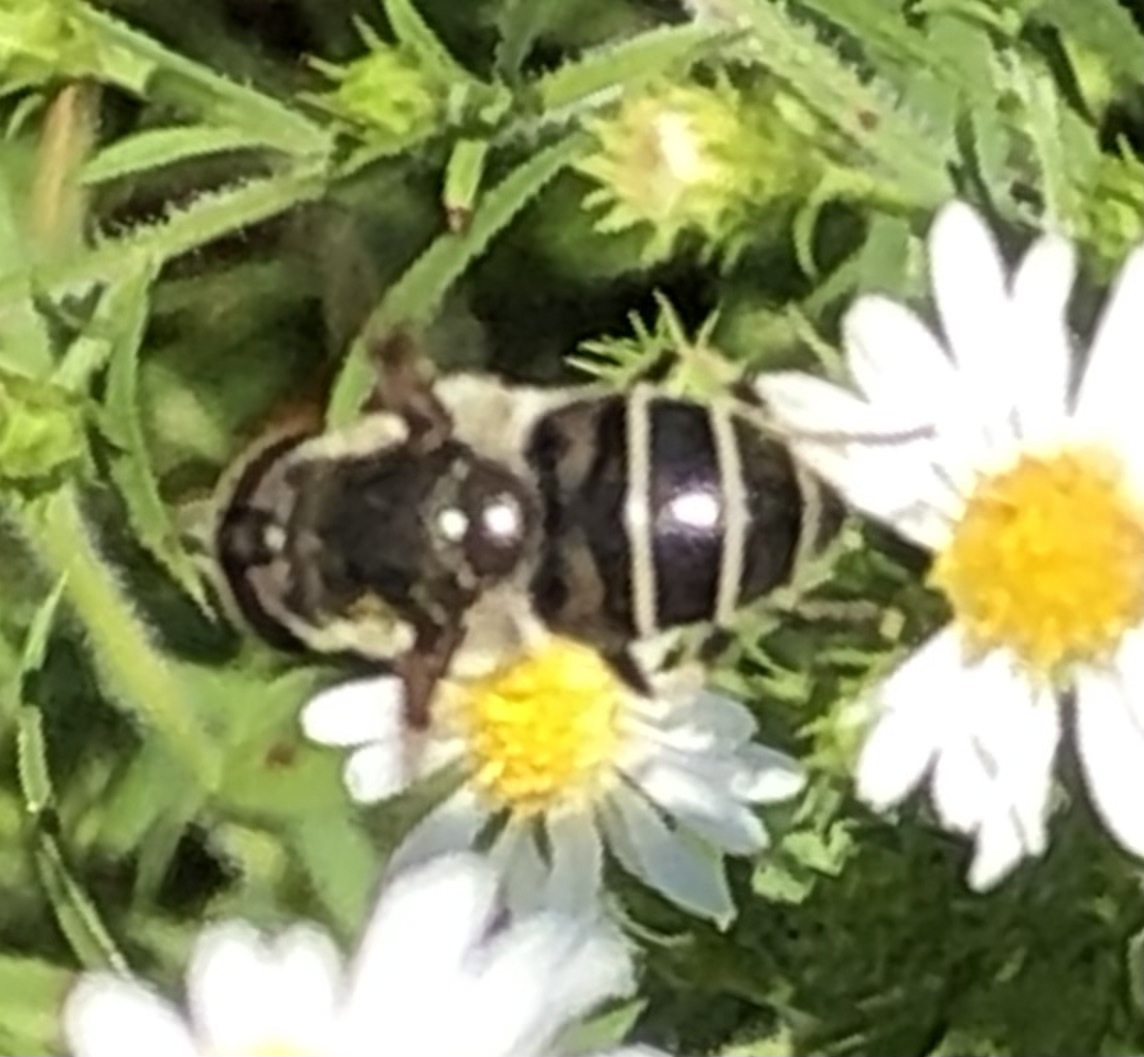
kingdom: Animalia
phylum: Arthropoda
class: Insecta
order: Diptera
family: Syrphidae
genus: Eristalis
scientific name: Eristalis dimidiata
